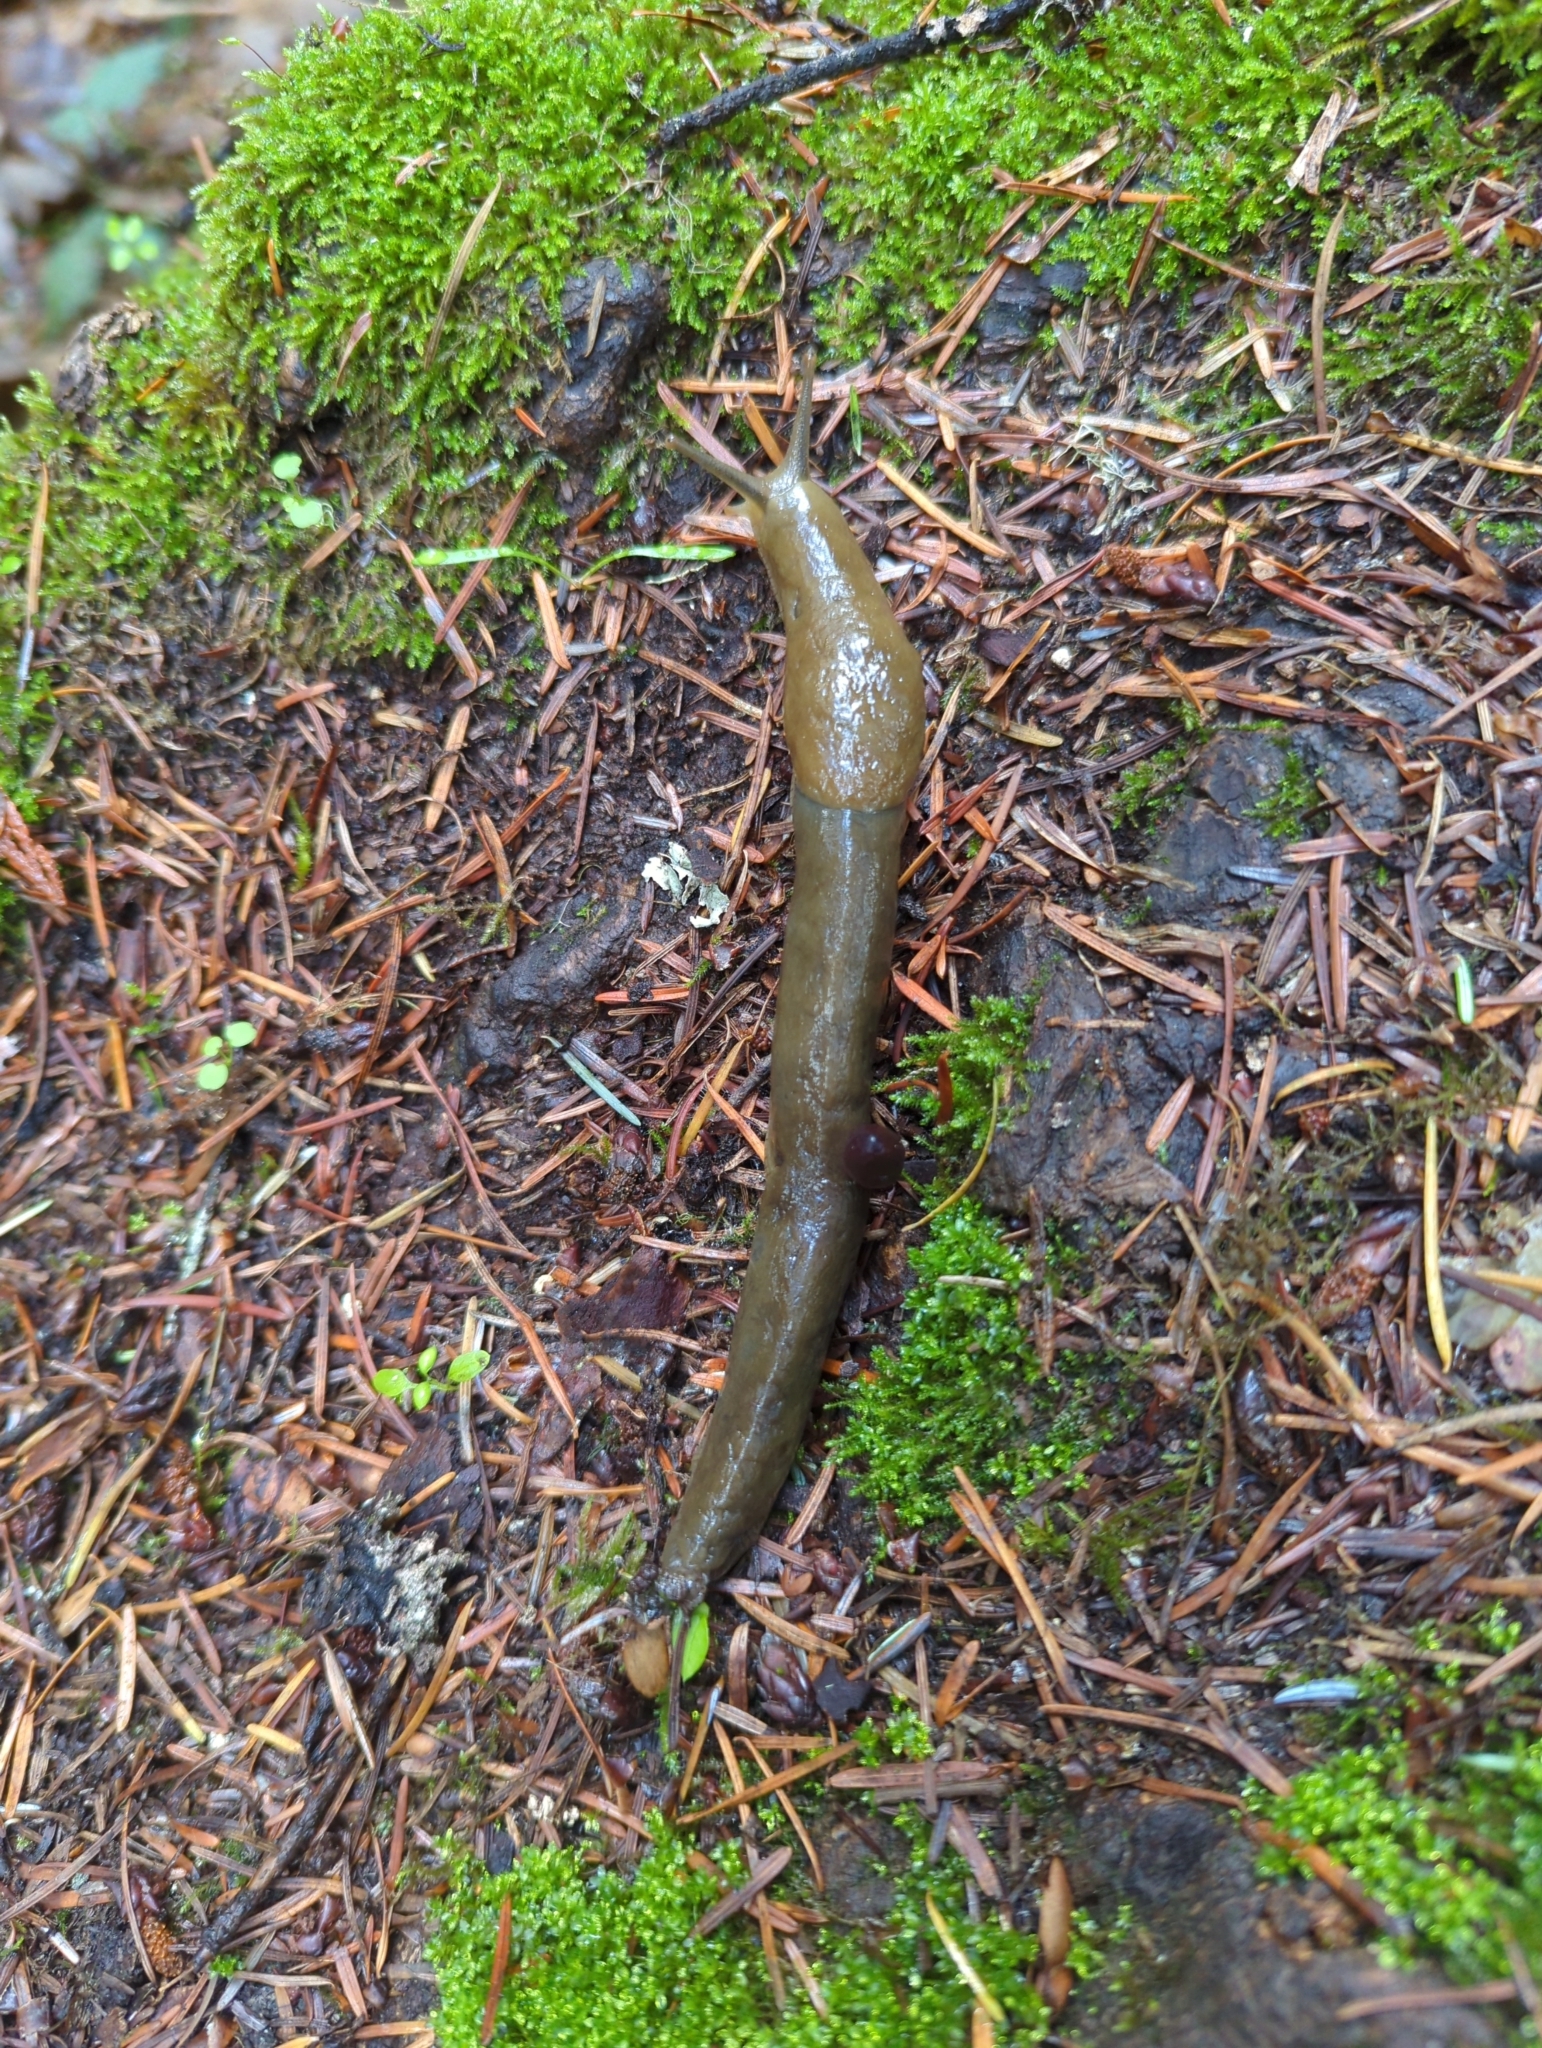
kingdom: Animalia
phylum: Mollusca
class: Gastropoda
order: Stylommatophora
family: Ariolimacidae
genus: Ariolimax
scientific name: Ariolimax columbianus
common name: Pacific banana slug
